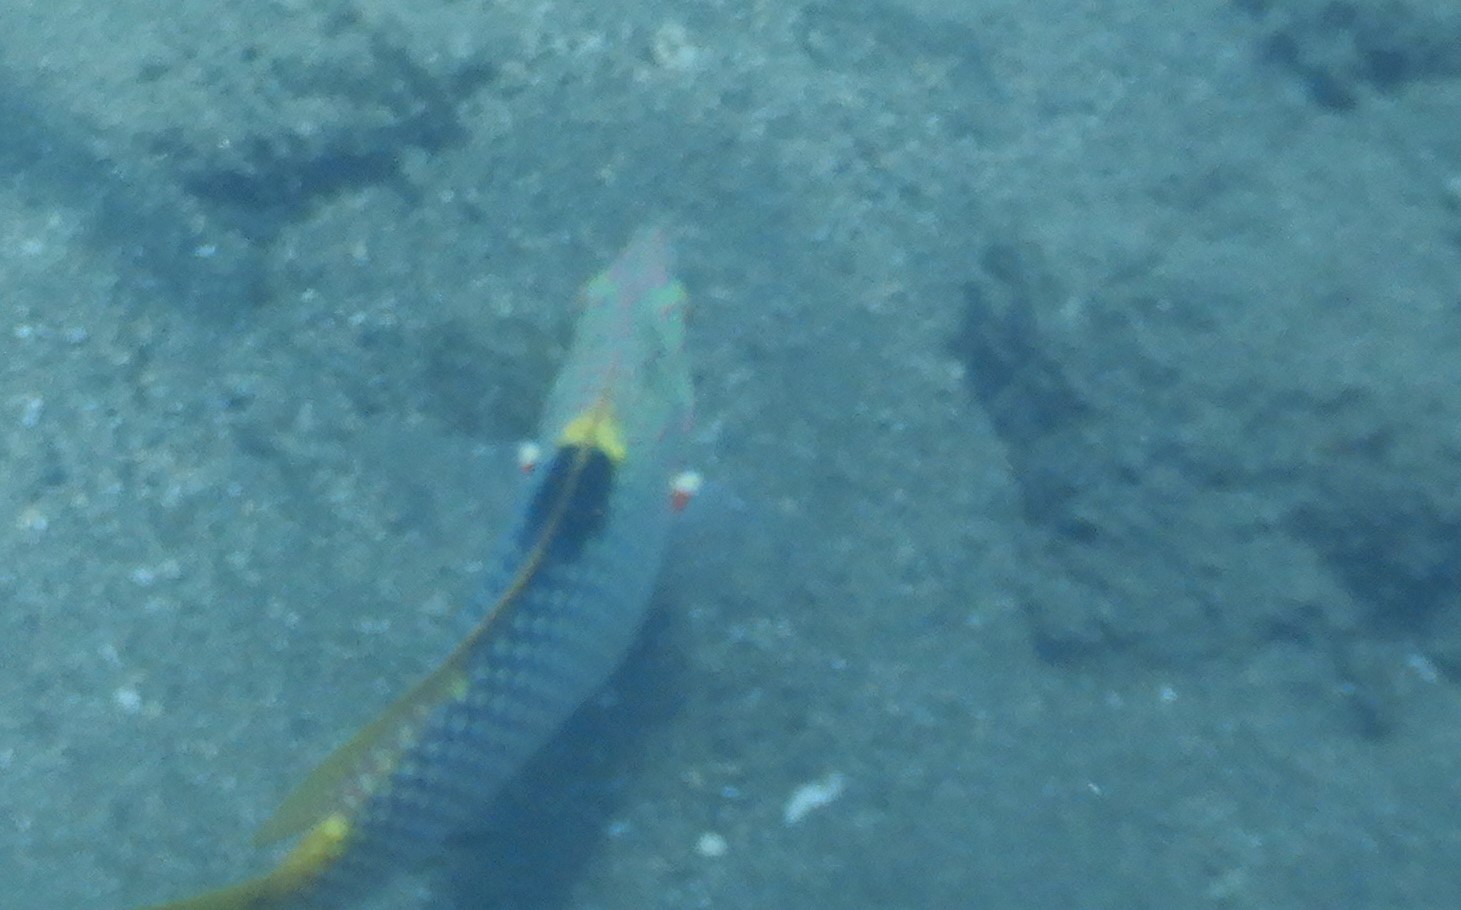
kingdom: Animalia
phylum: Chordata
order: Perciformes
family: Labridae
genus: Halichoeres
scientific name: Halichoeres hortulanus
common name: Checkerboard wrasse
